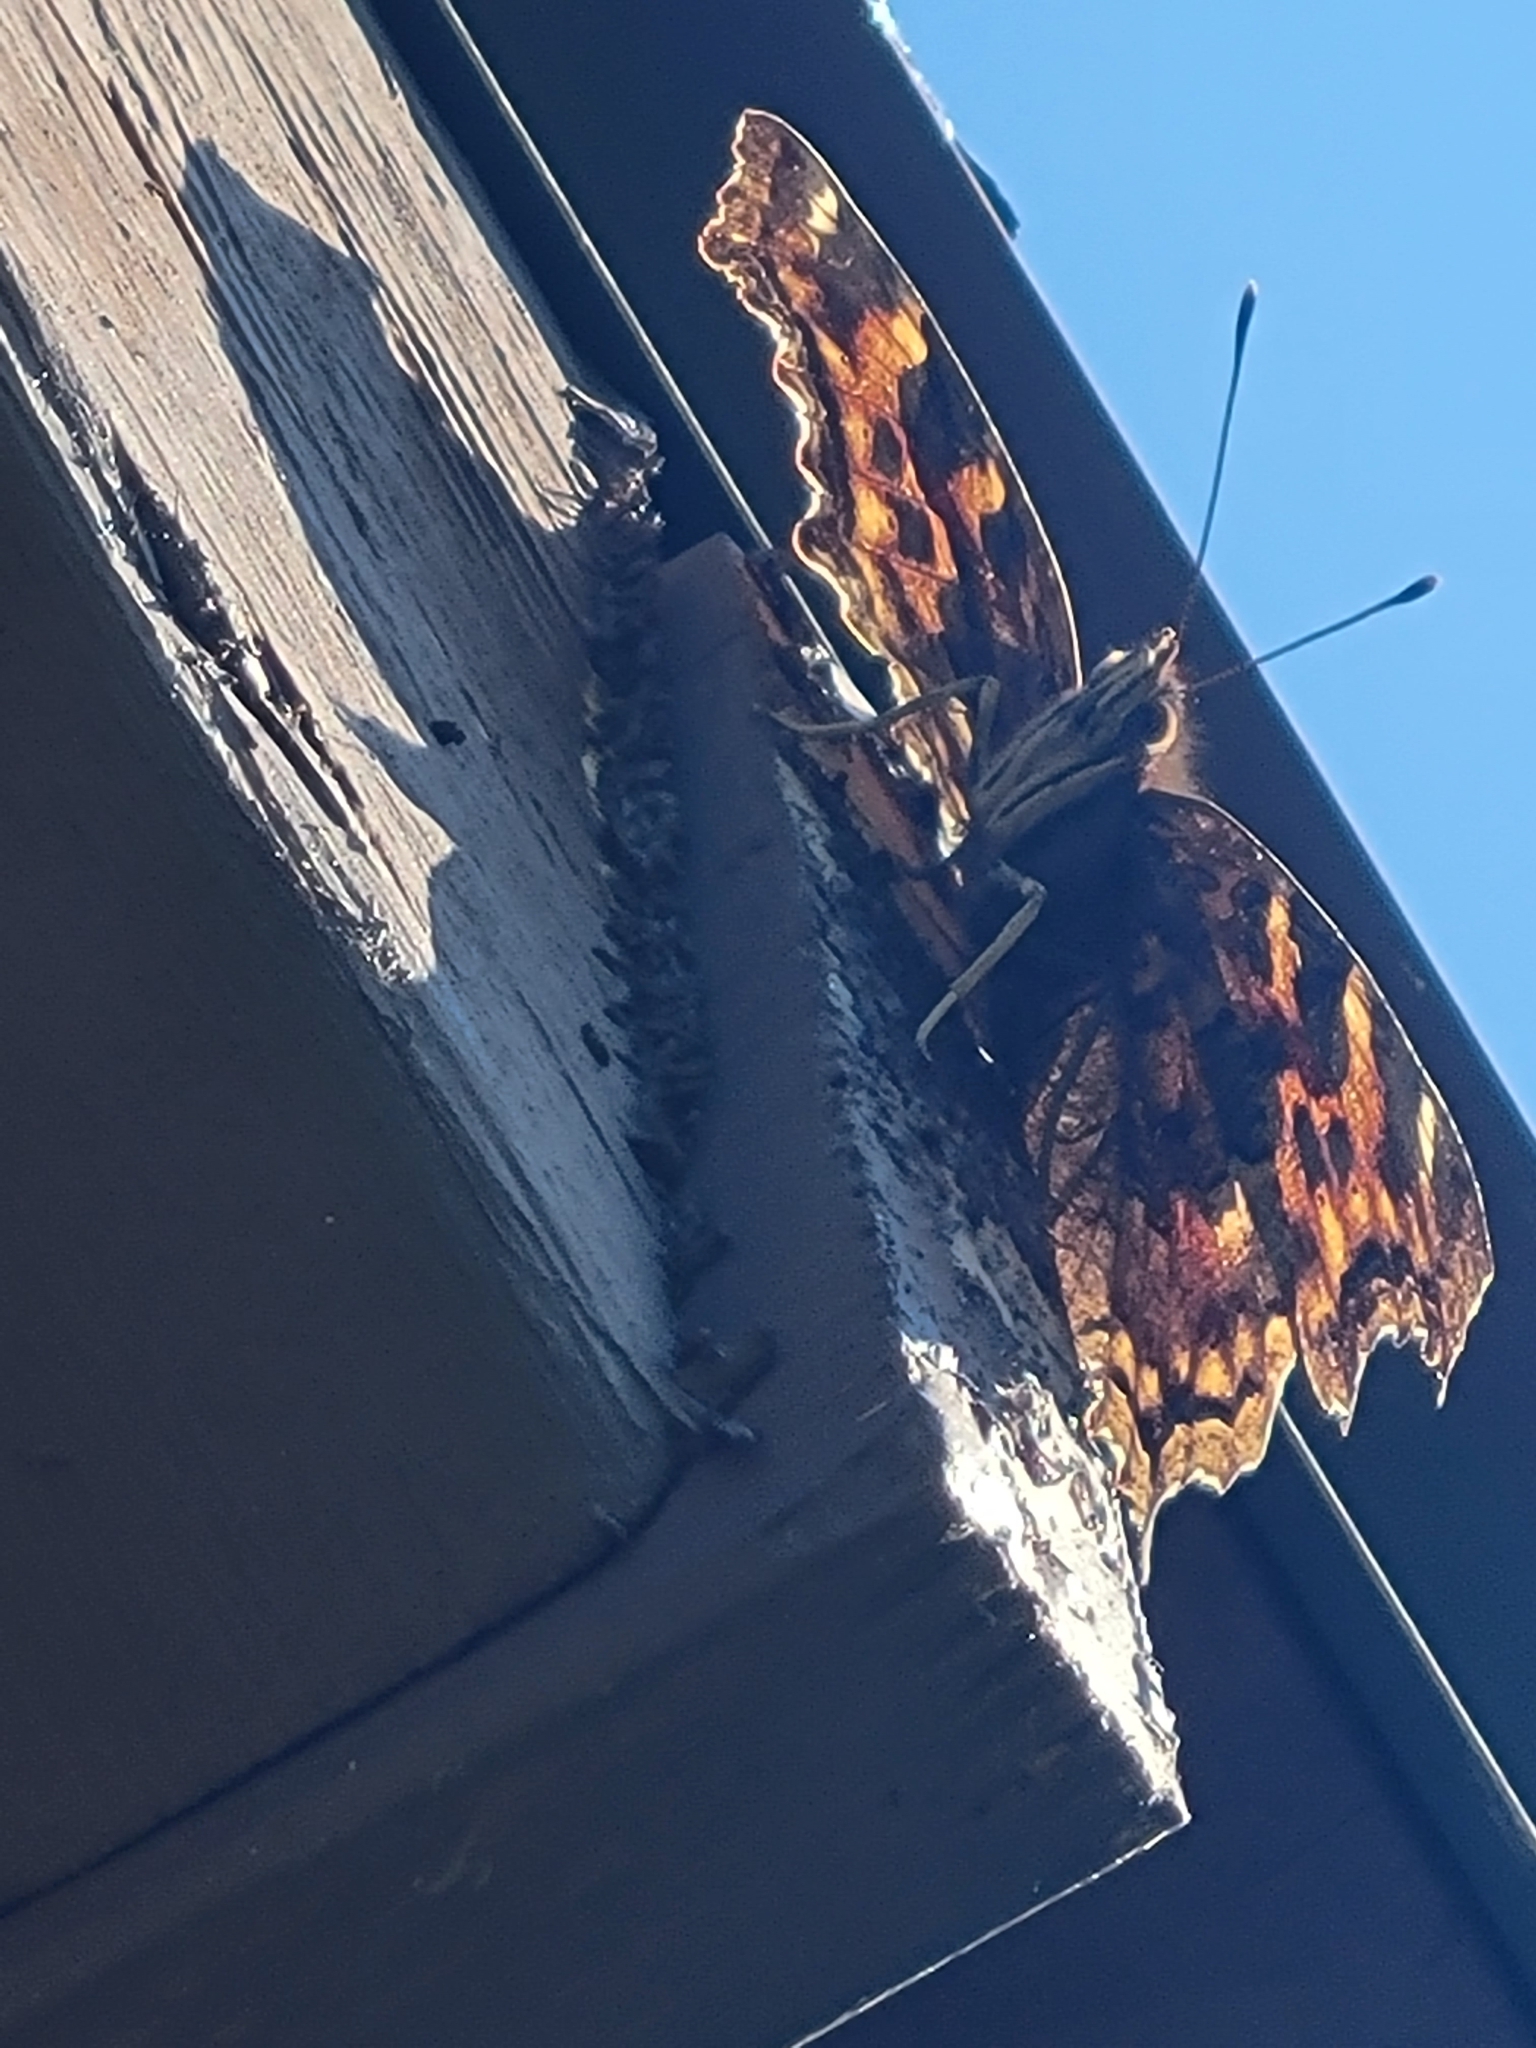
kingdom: Animalia
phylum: Arthropoda
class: Insecta
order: Lepidoptera
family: Nymphalidae
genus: Polygonia
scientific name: Polygonia vaualbum
